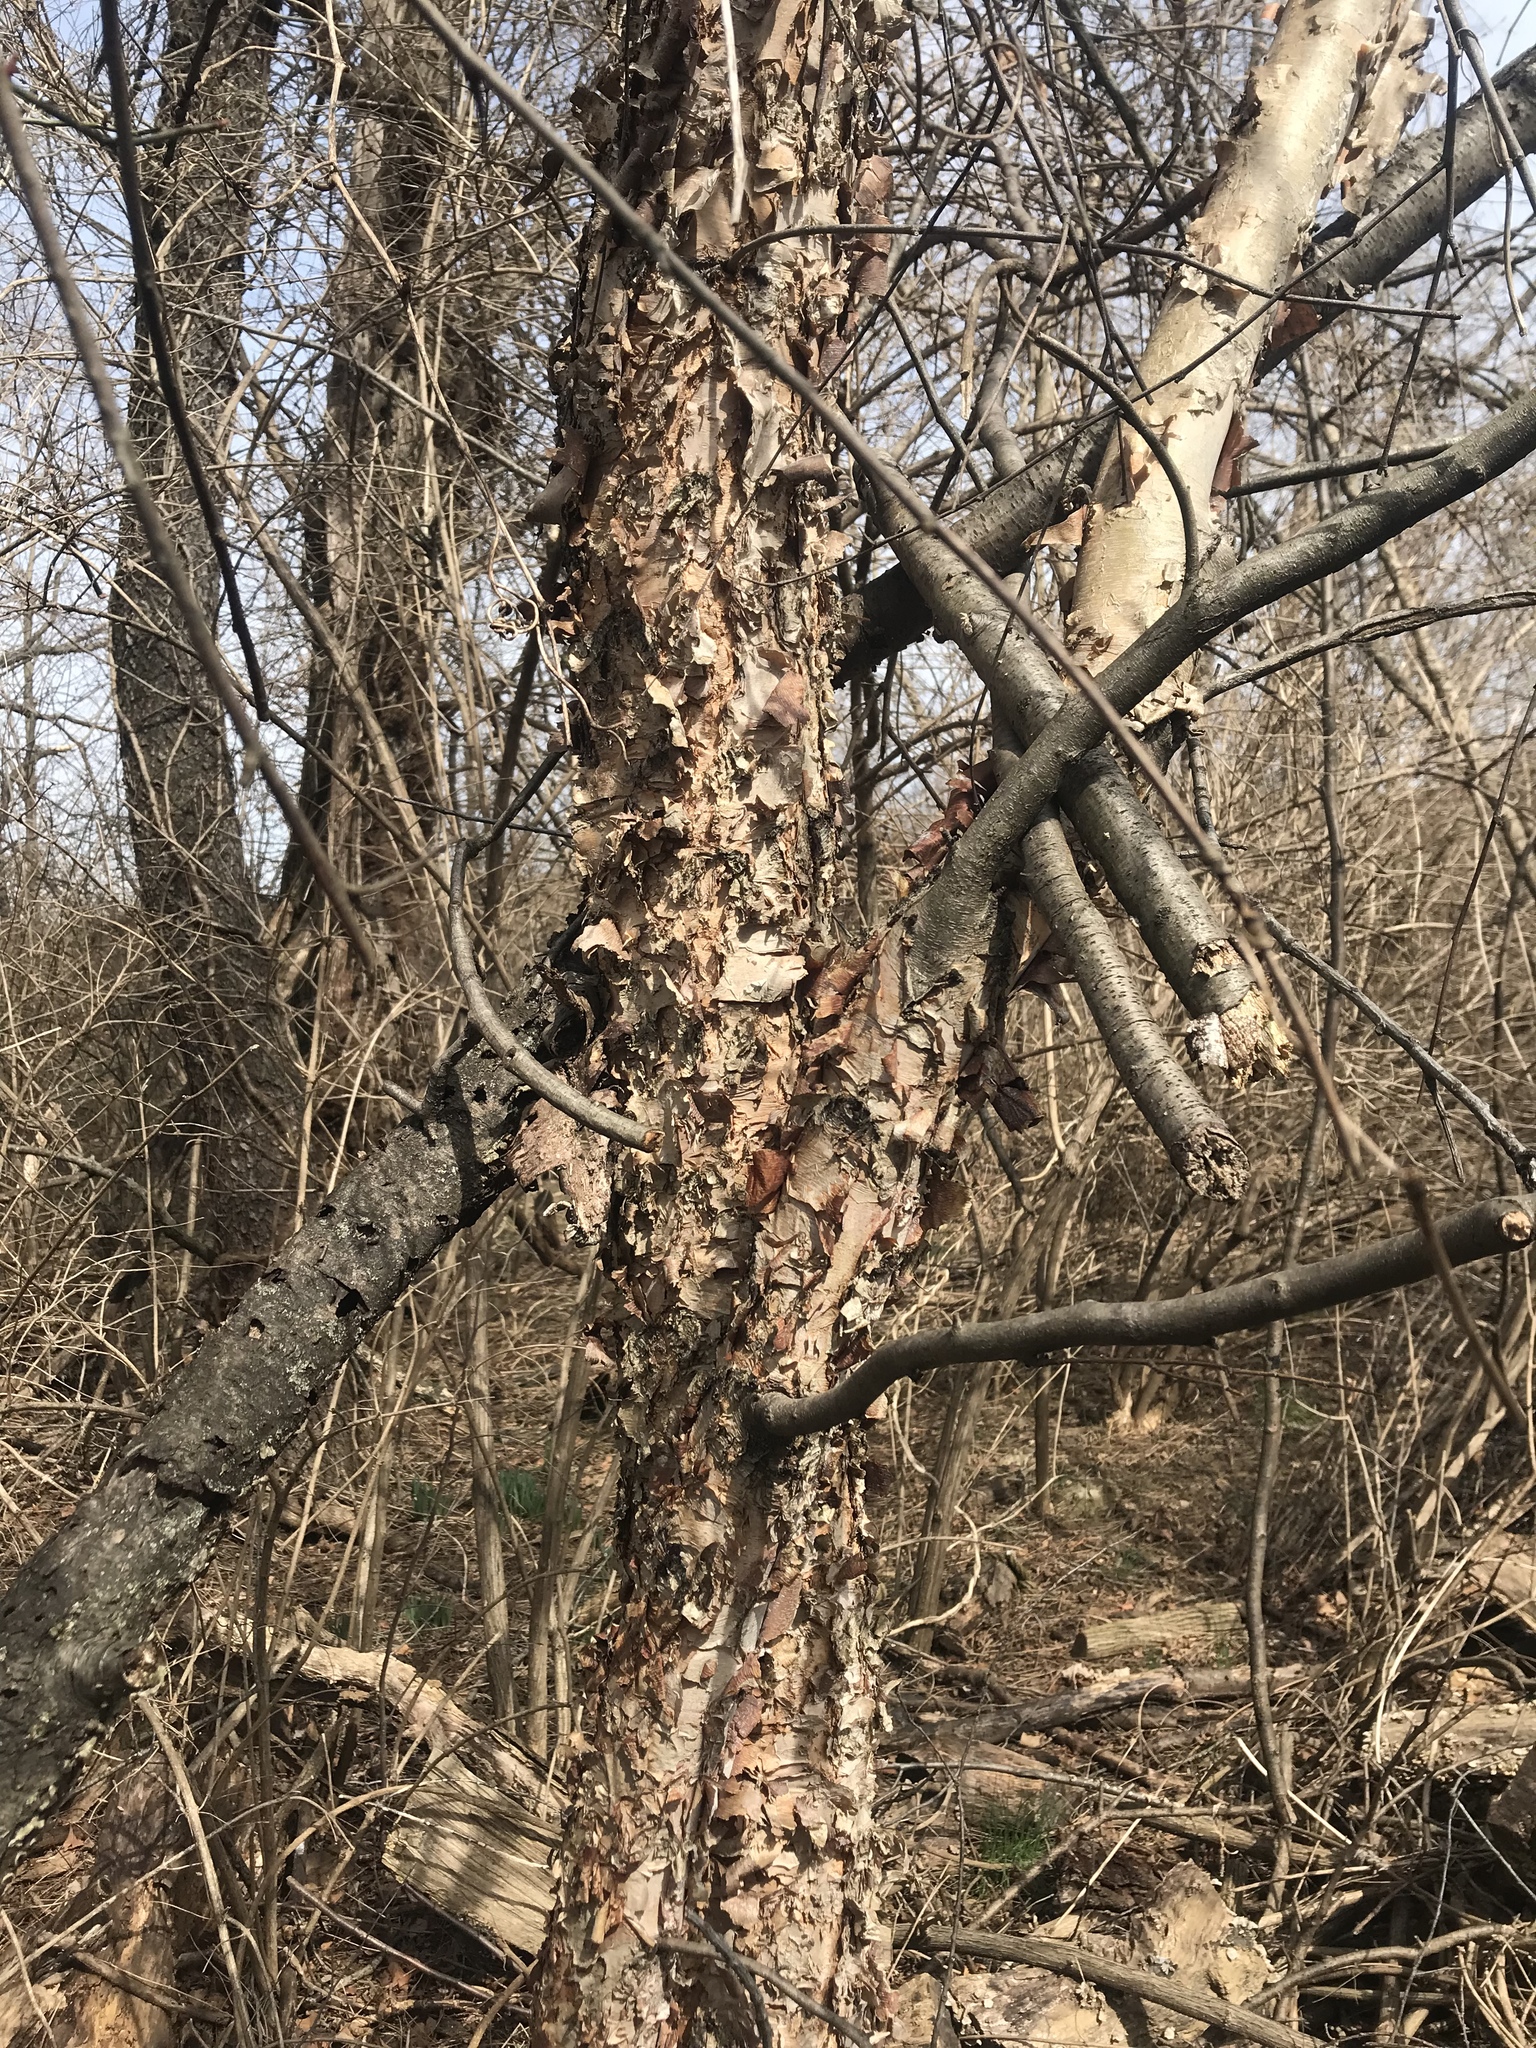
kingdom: Plantae
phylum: Tracheophyta
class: Magnoliopsida
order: Fagales
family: Betulaceae
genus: Betula
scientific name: Betula nigra
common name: Black birch
